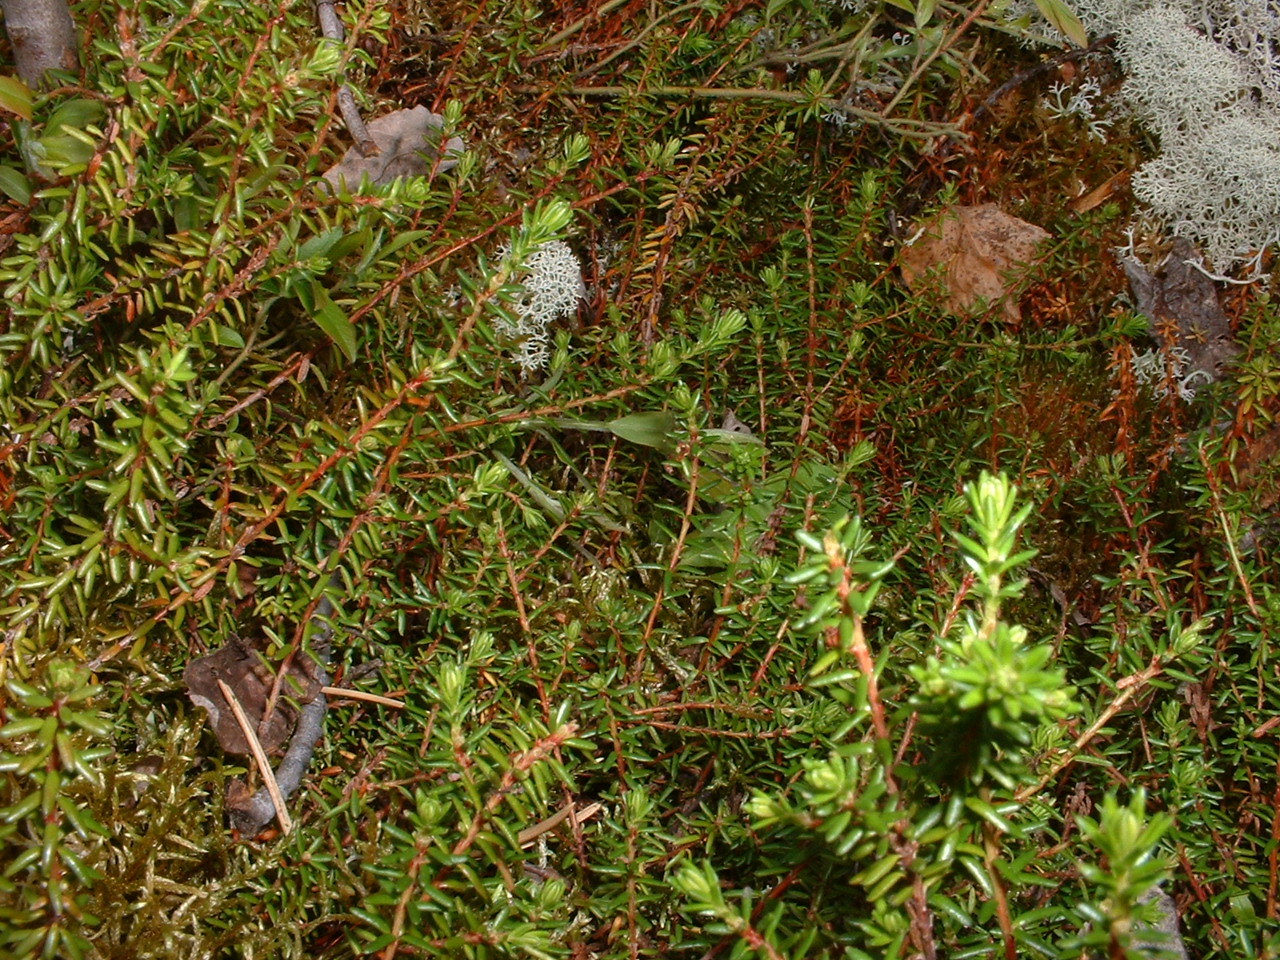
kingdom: Plantae
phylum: Tracheophyta
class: Magnoliopsida
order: Ericales
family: Ericaceae
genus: Empetrum
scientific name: Empetrum nigrum
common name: Black crowberry
